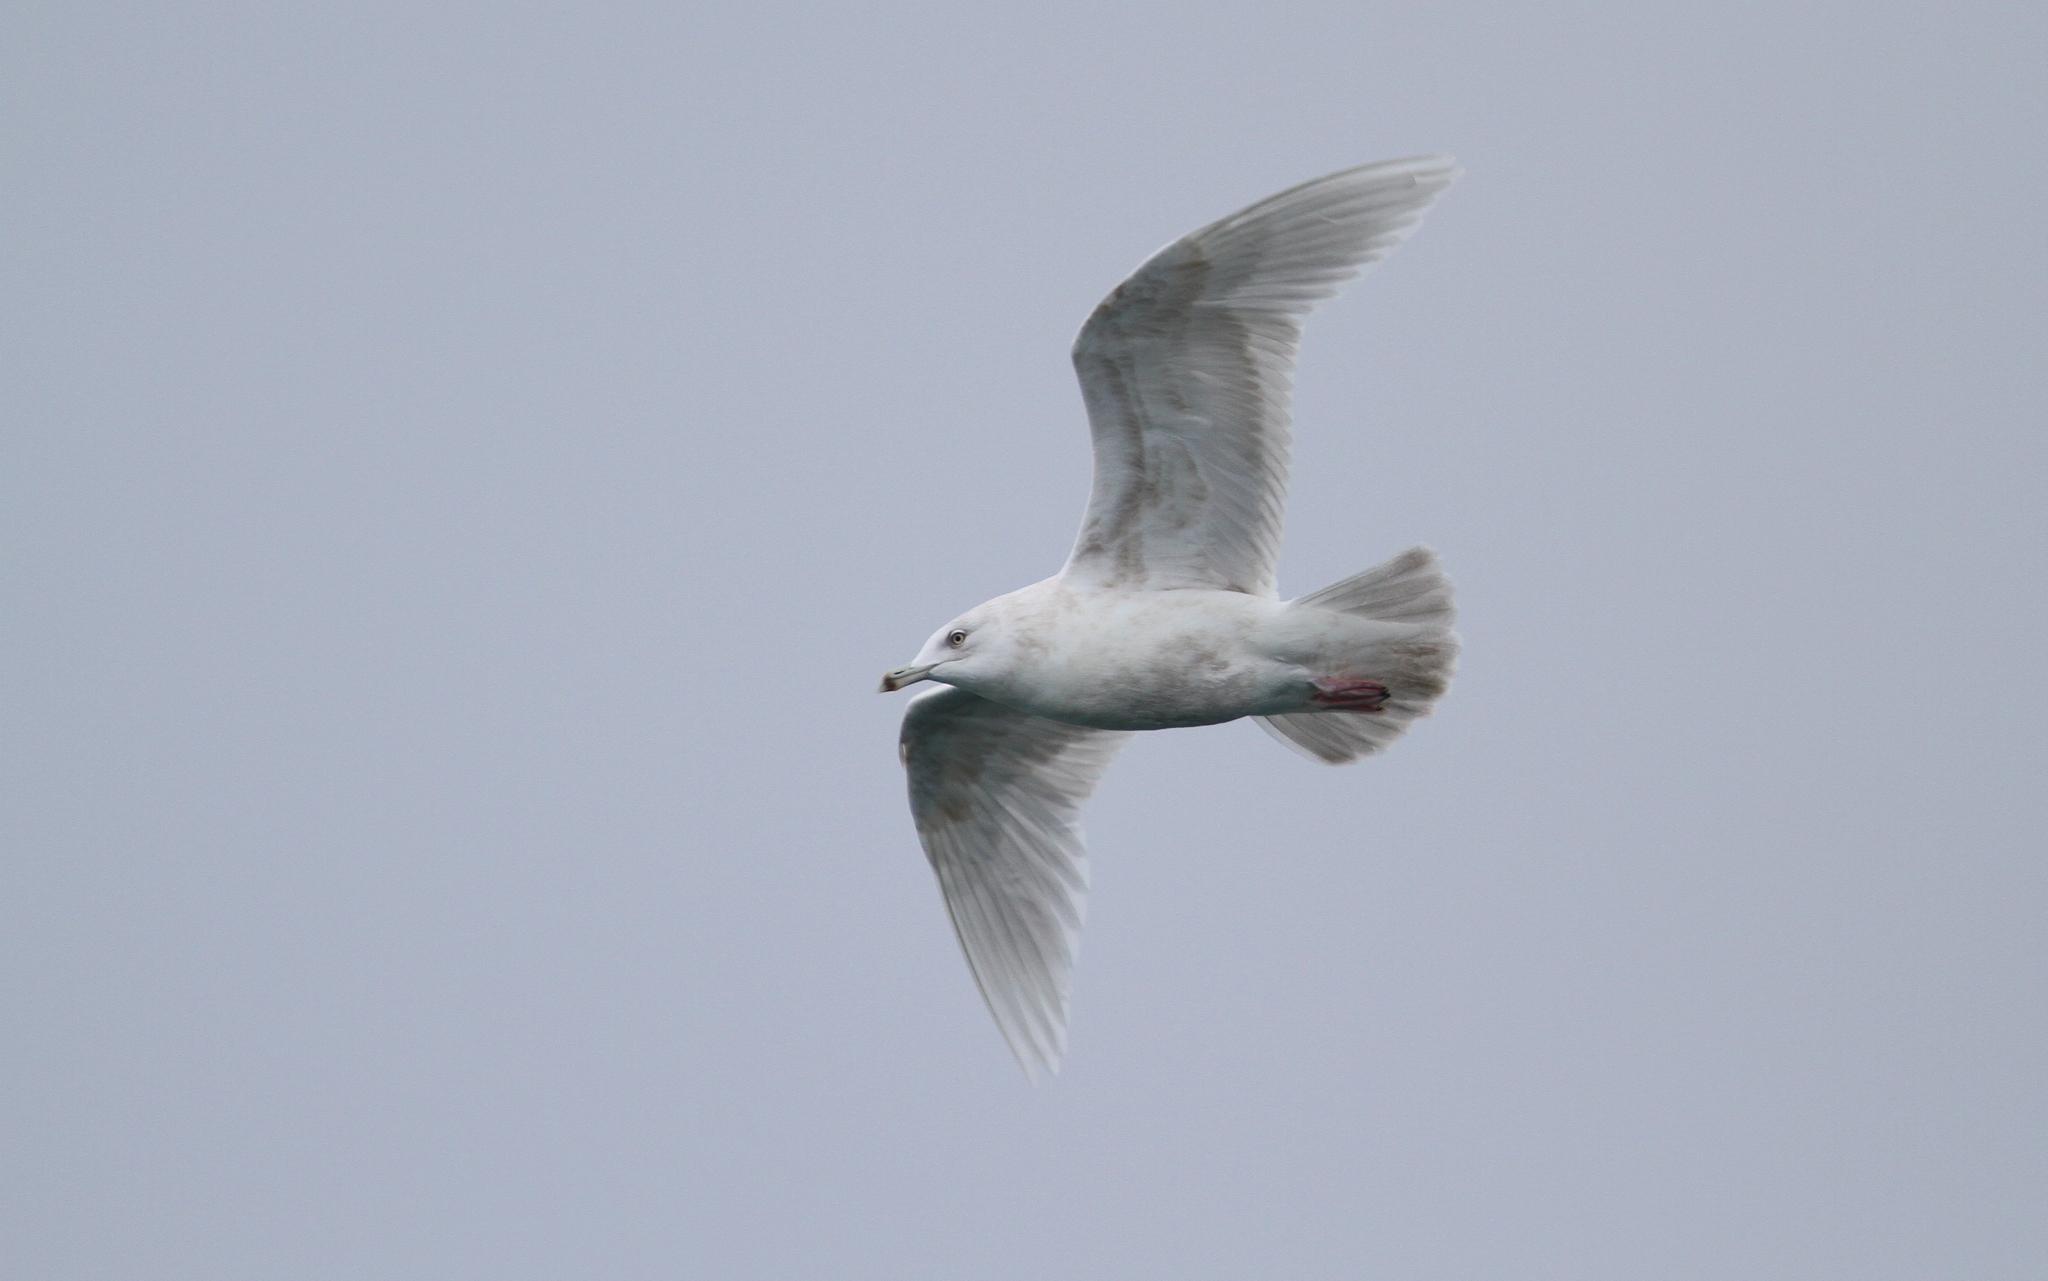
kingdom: Animalia
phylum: Chordata
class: Aves
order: Charadriiformes
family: Laridae
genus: Larus
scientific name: Larus glaucoides
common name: Iceland gull
